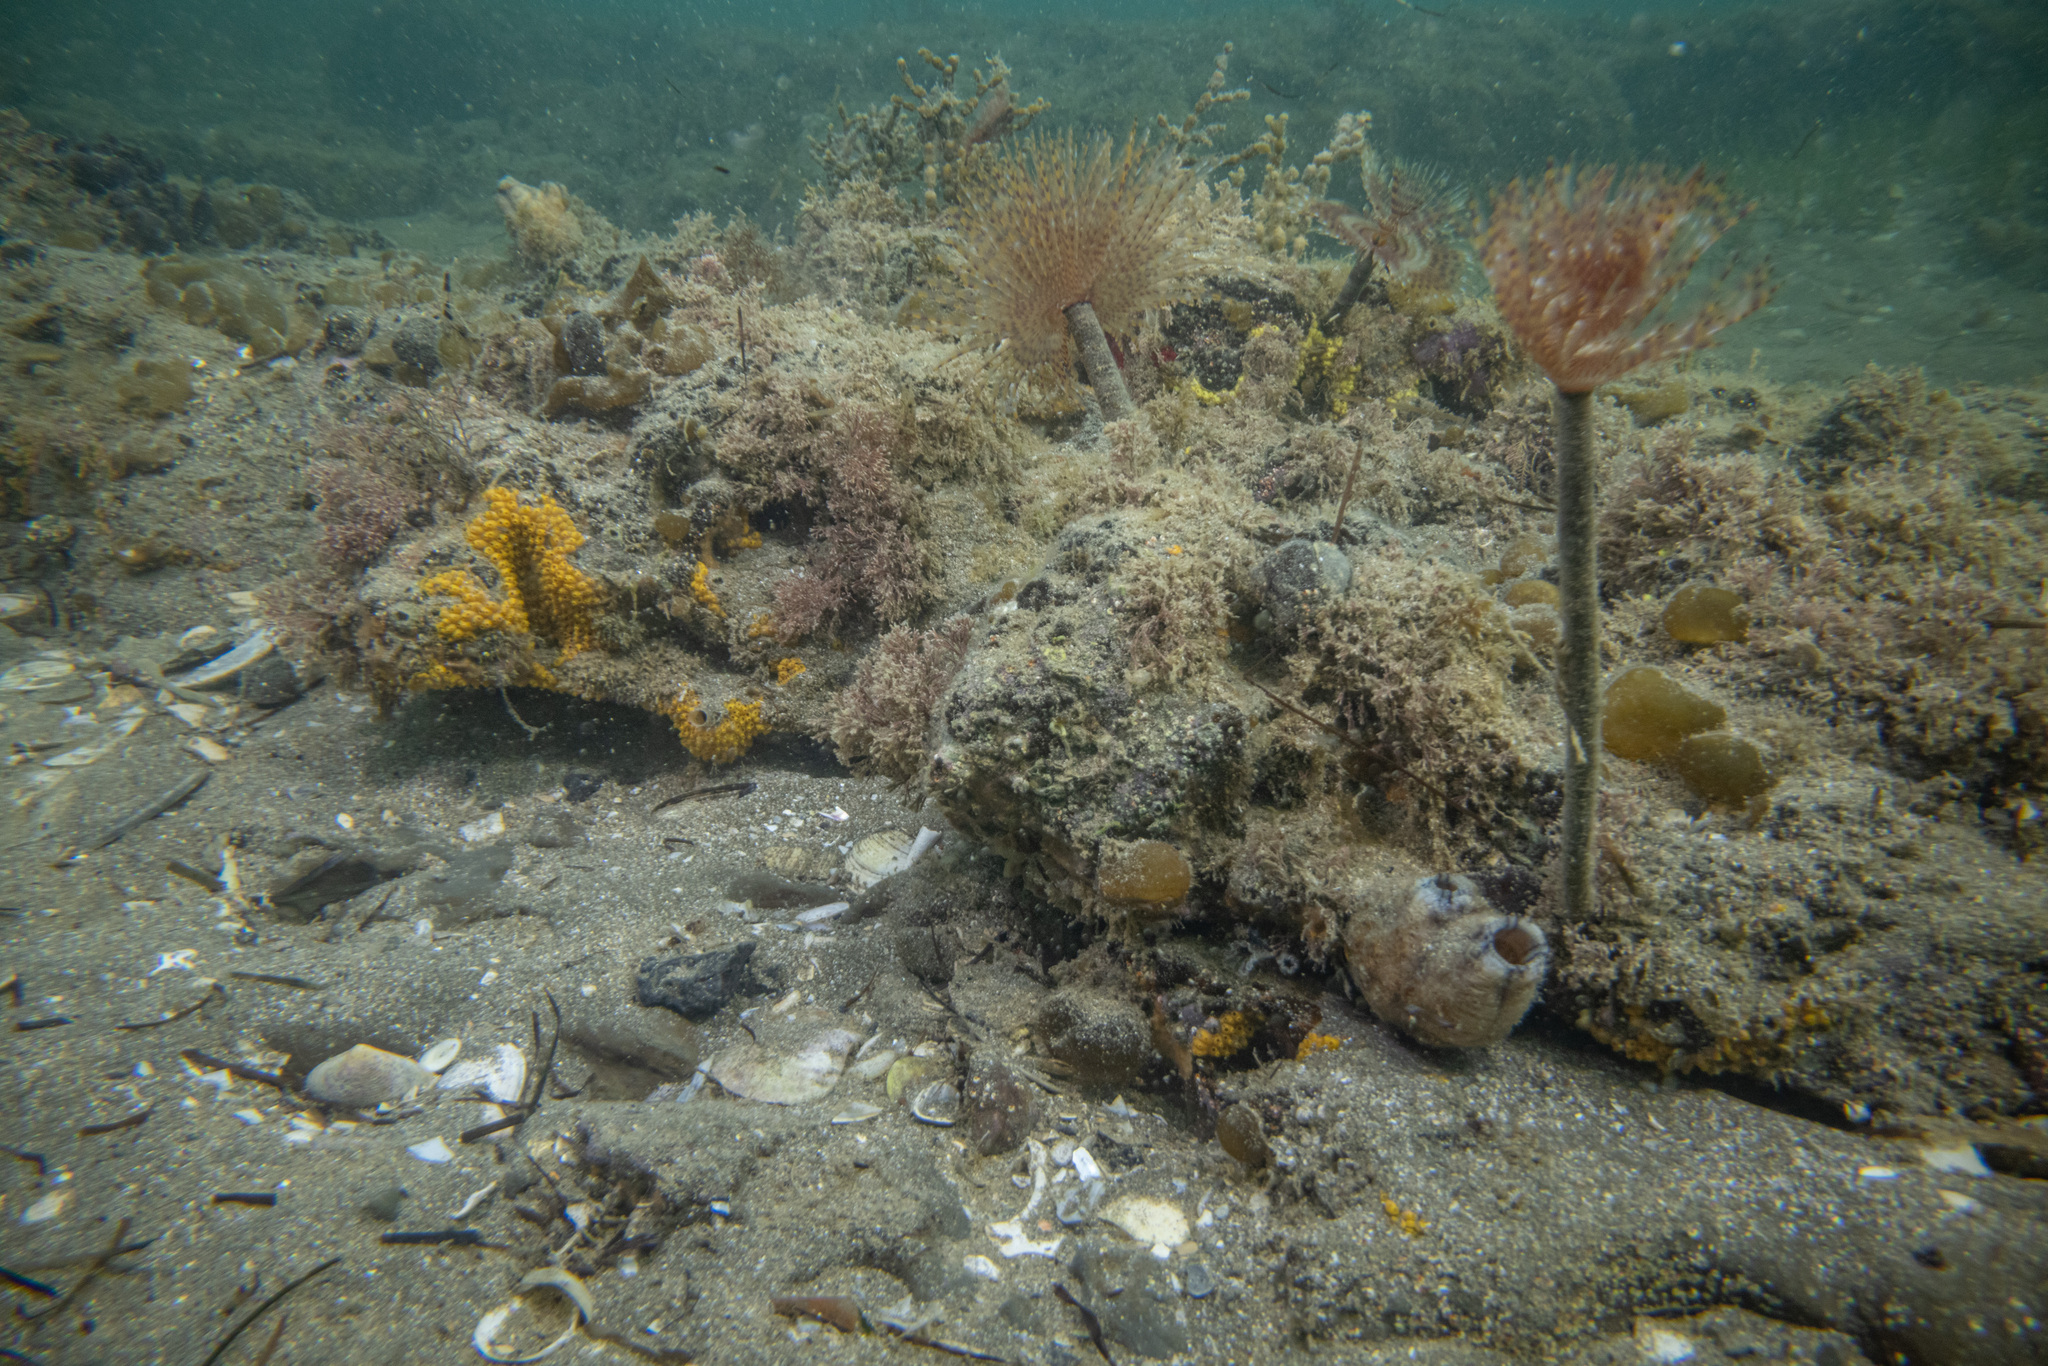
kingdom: Animalia
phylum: Chordata
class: Ascidiacea
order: Stolidobranchia
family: Styelidae
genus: Styela
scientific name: Styela plicata
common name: Pleated tunicate
